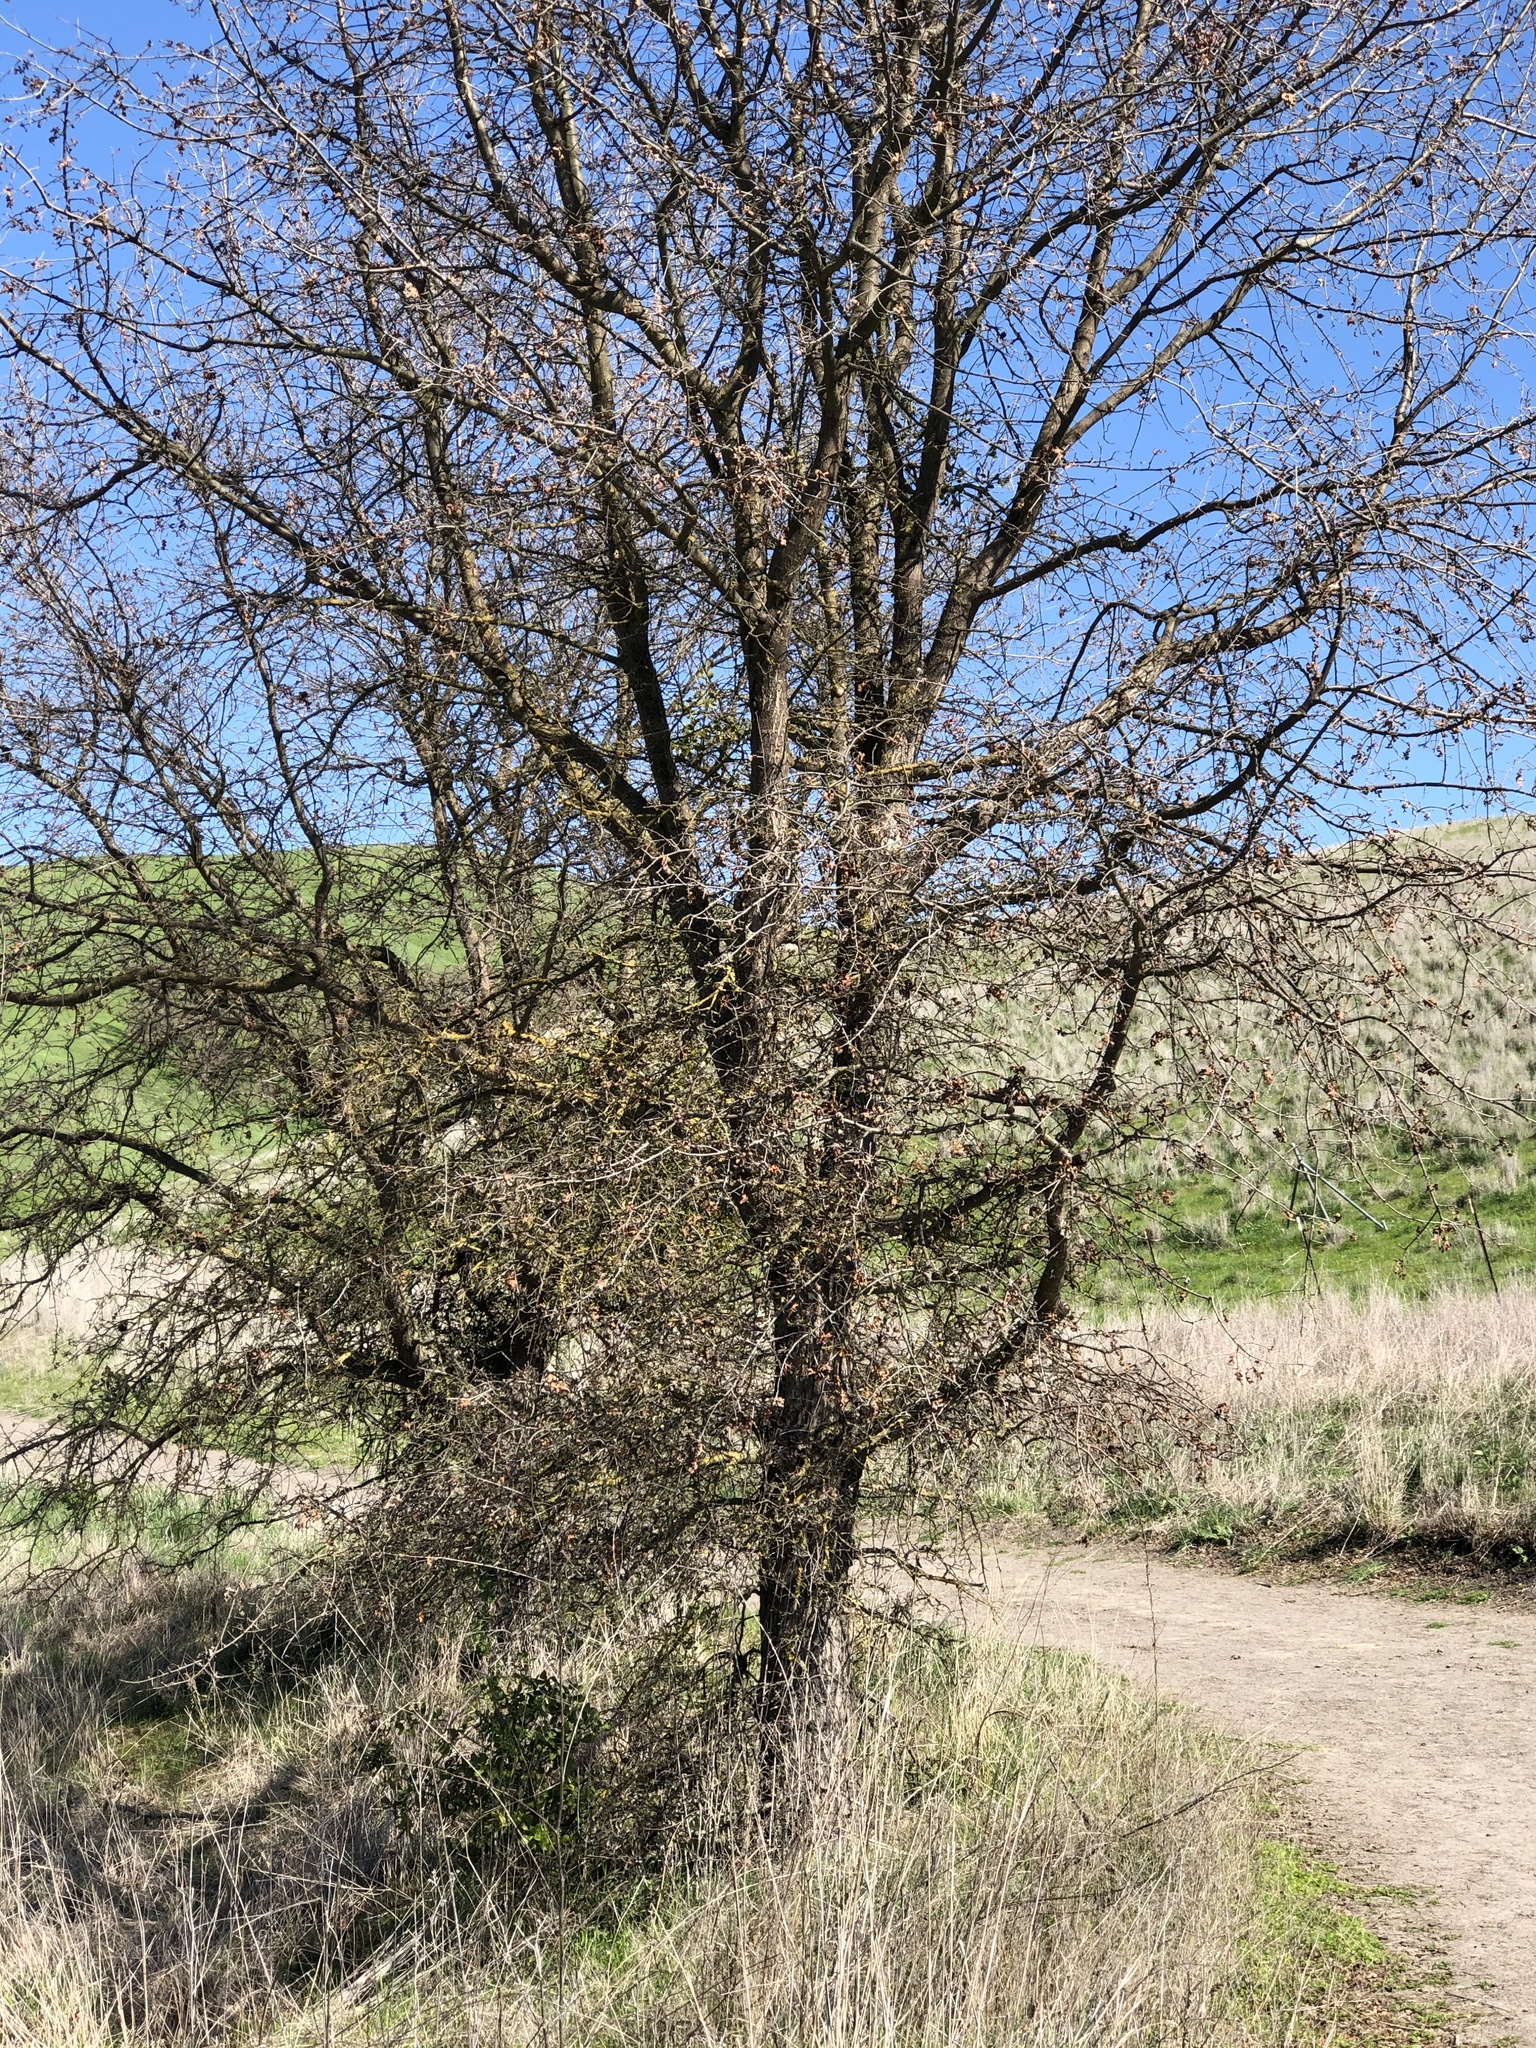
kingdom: Plantae
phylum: Tracheophyta
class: Magnoliopsida
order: Fagales
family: Fagaceae
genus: Quercus
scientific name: Quercus lobata
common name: Valley oak
